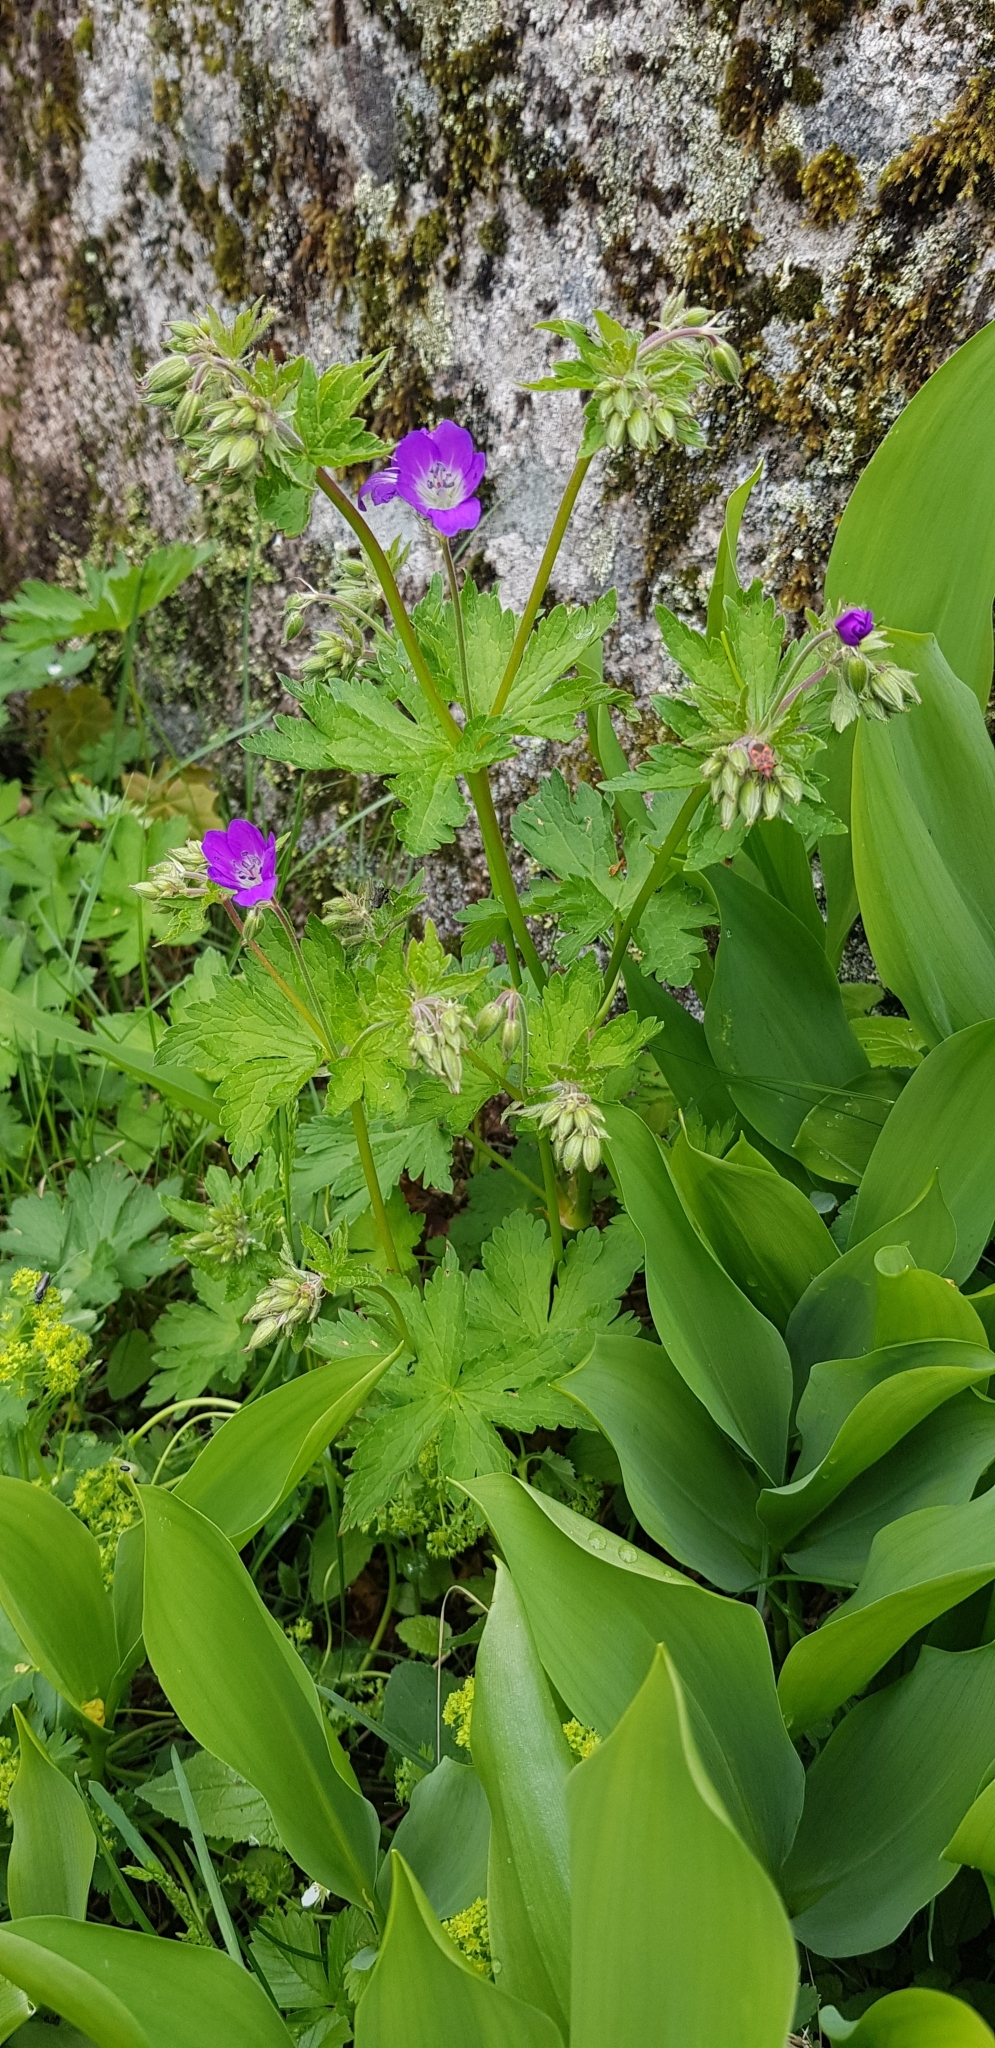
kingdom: Plantae
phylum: Tracheophyta
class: Magnoliopsida
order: Geraniales
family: Geraniaceae
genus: Geranium
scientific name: Geranium sylvaticum
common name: Wood crane's-bill
